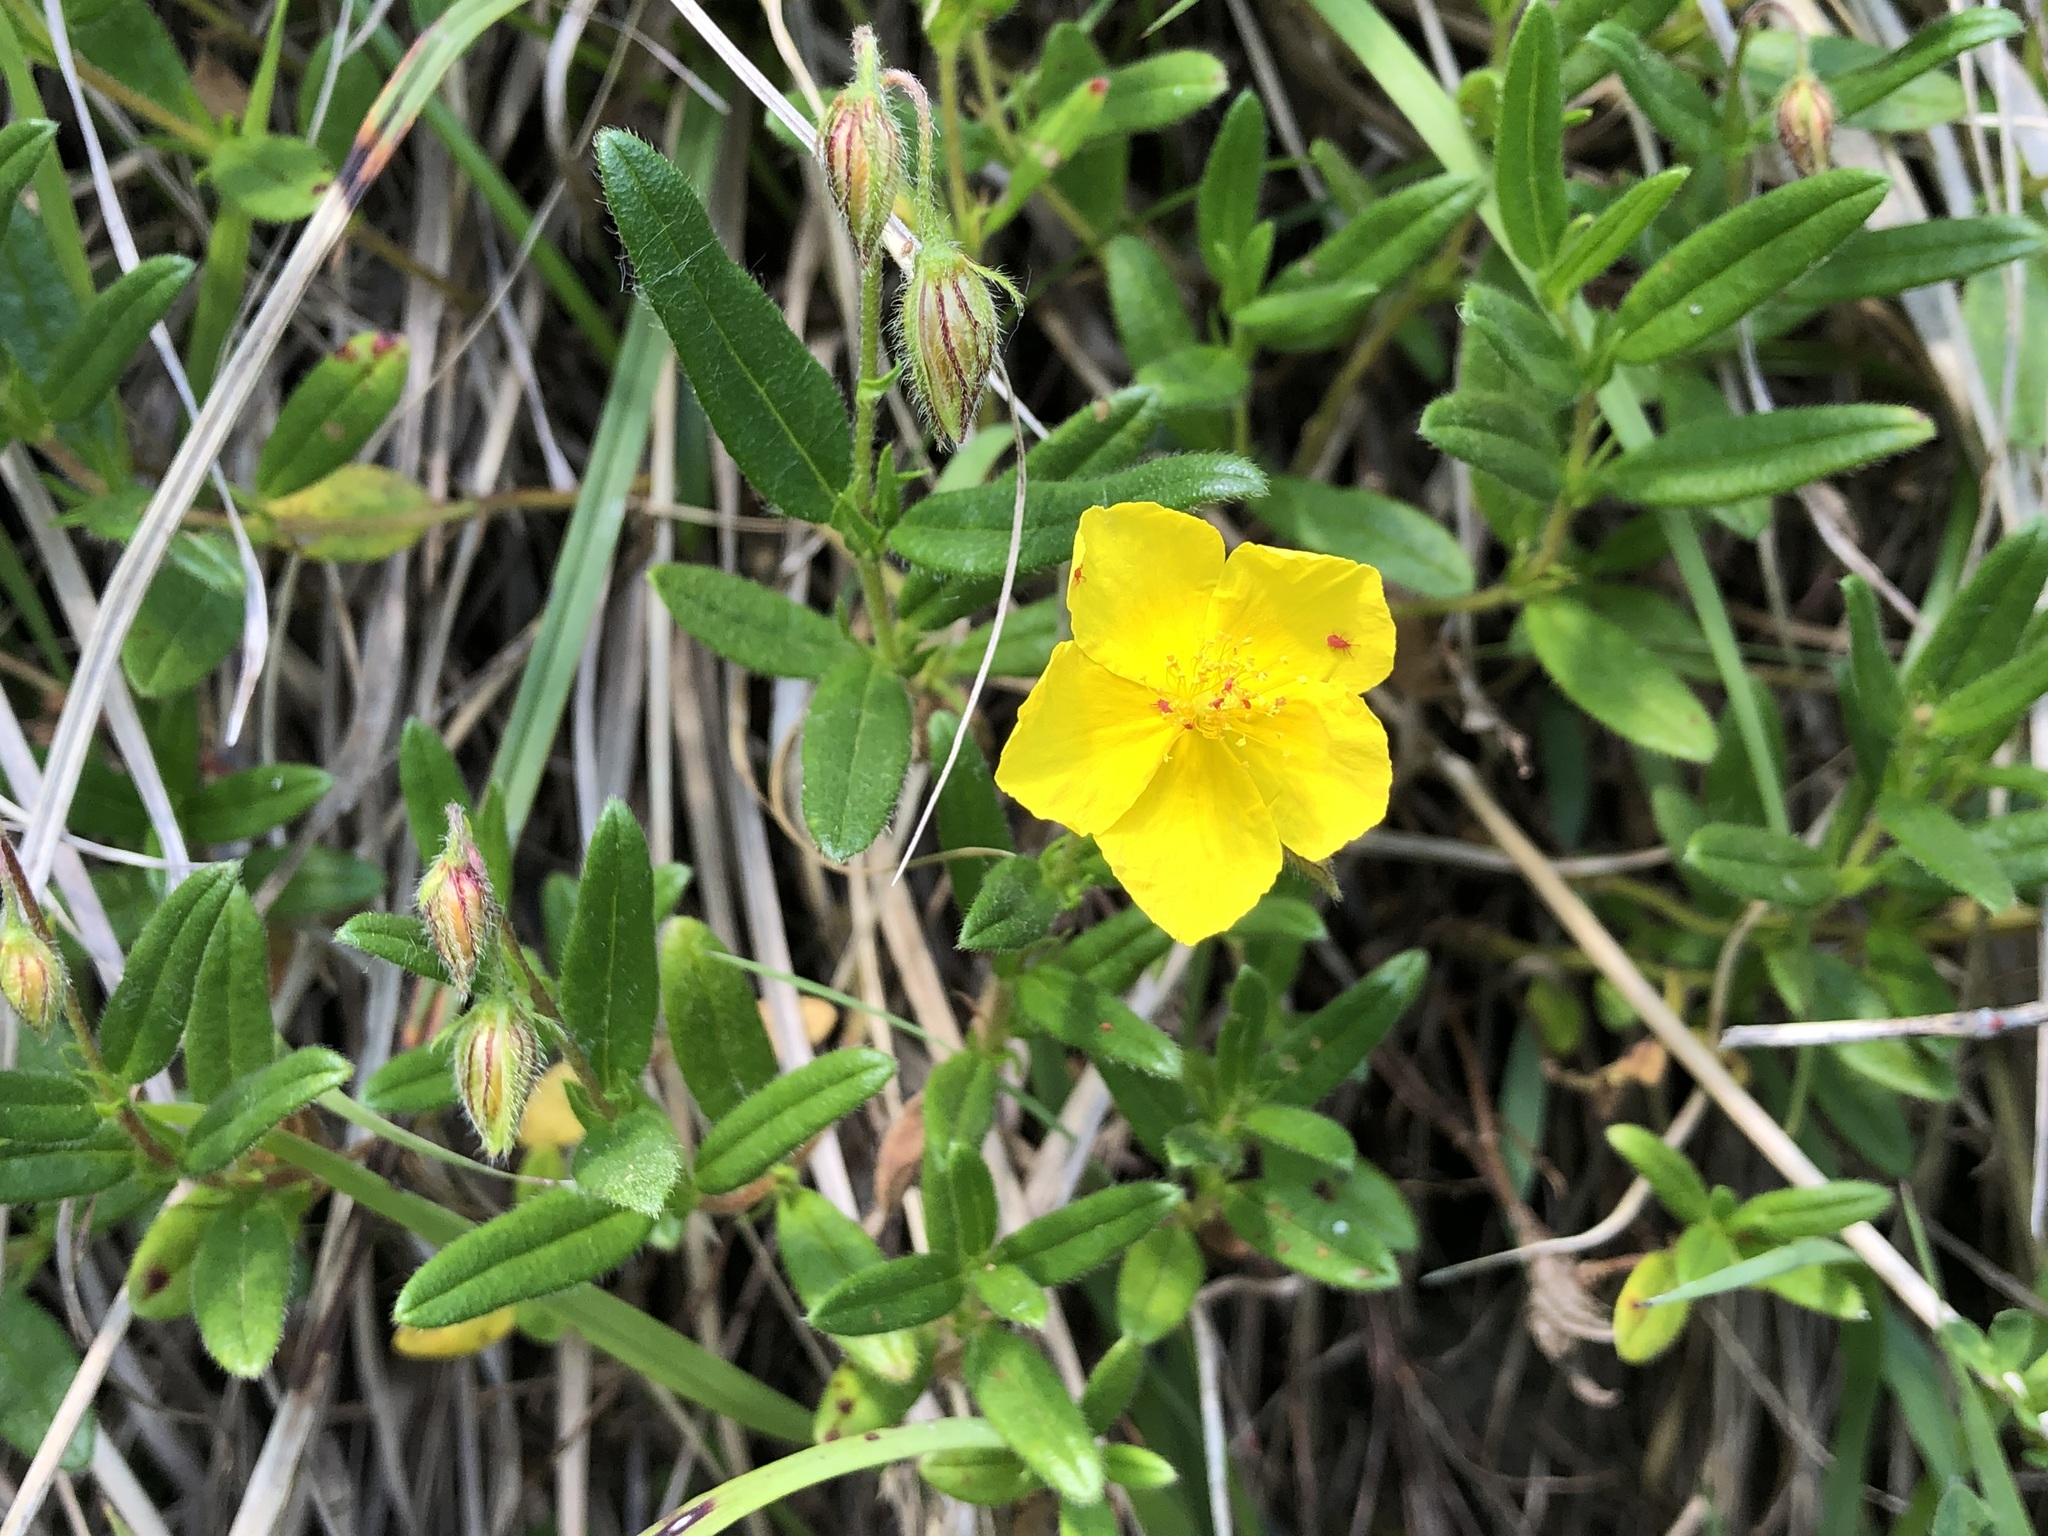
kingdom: Plantae
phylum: Tracheophyta
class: Magnoliopsida
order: Malvales
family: Cistaceae
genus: Helianthemum
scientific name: Helianthemum nummularium
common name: Common rock-rose
